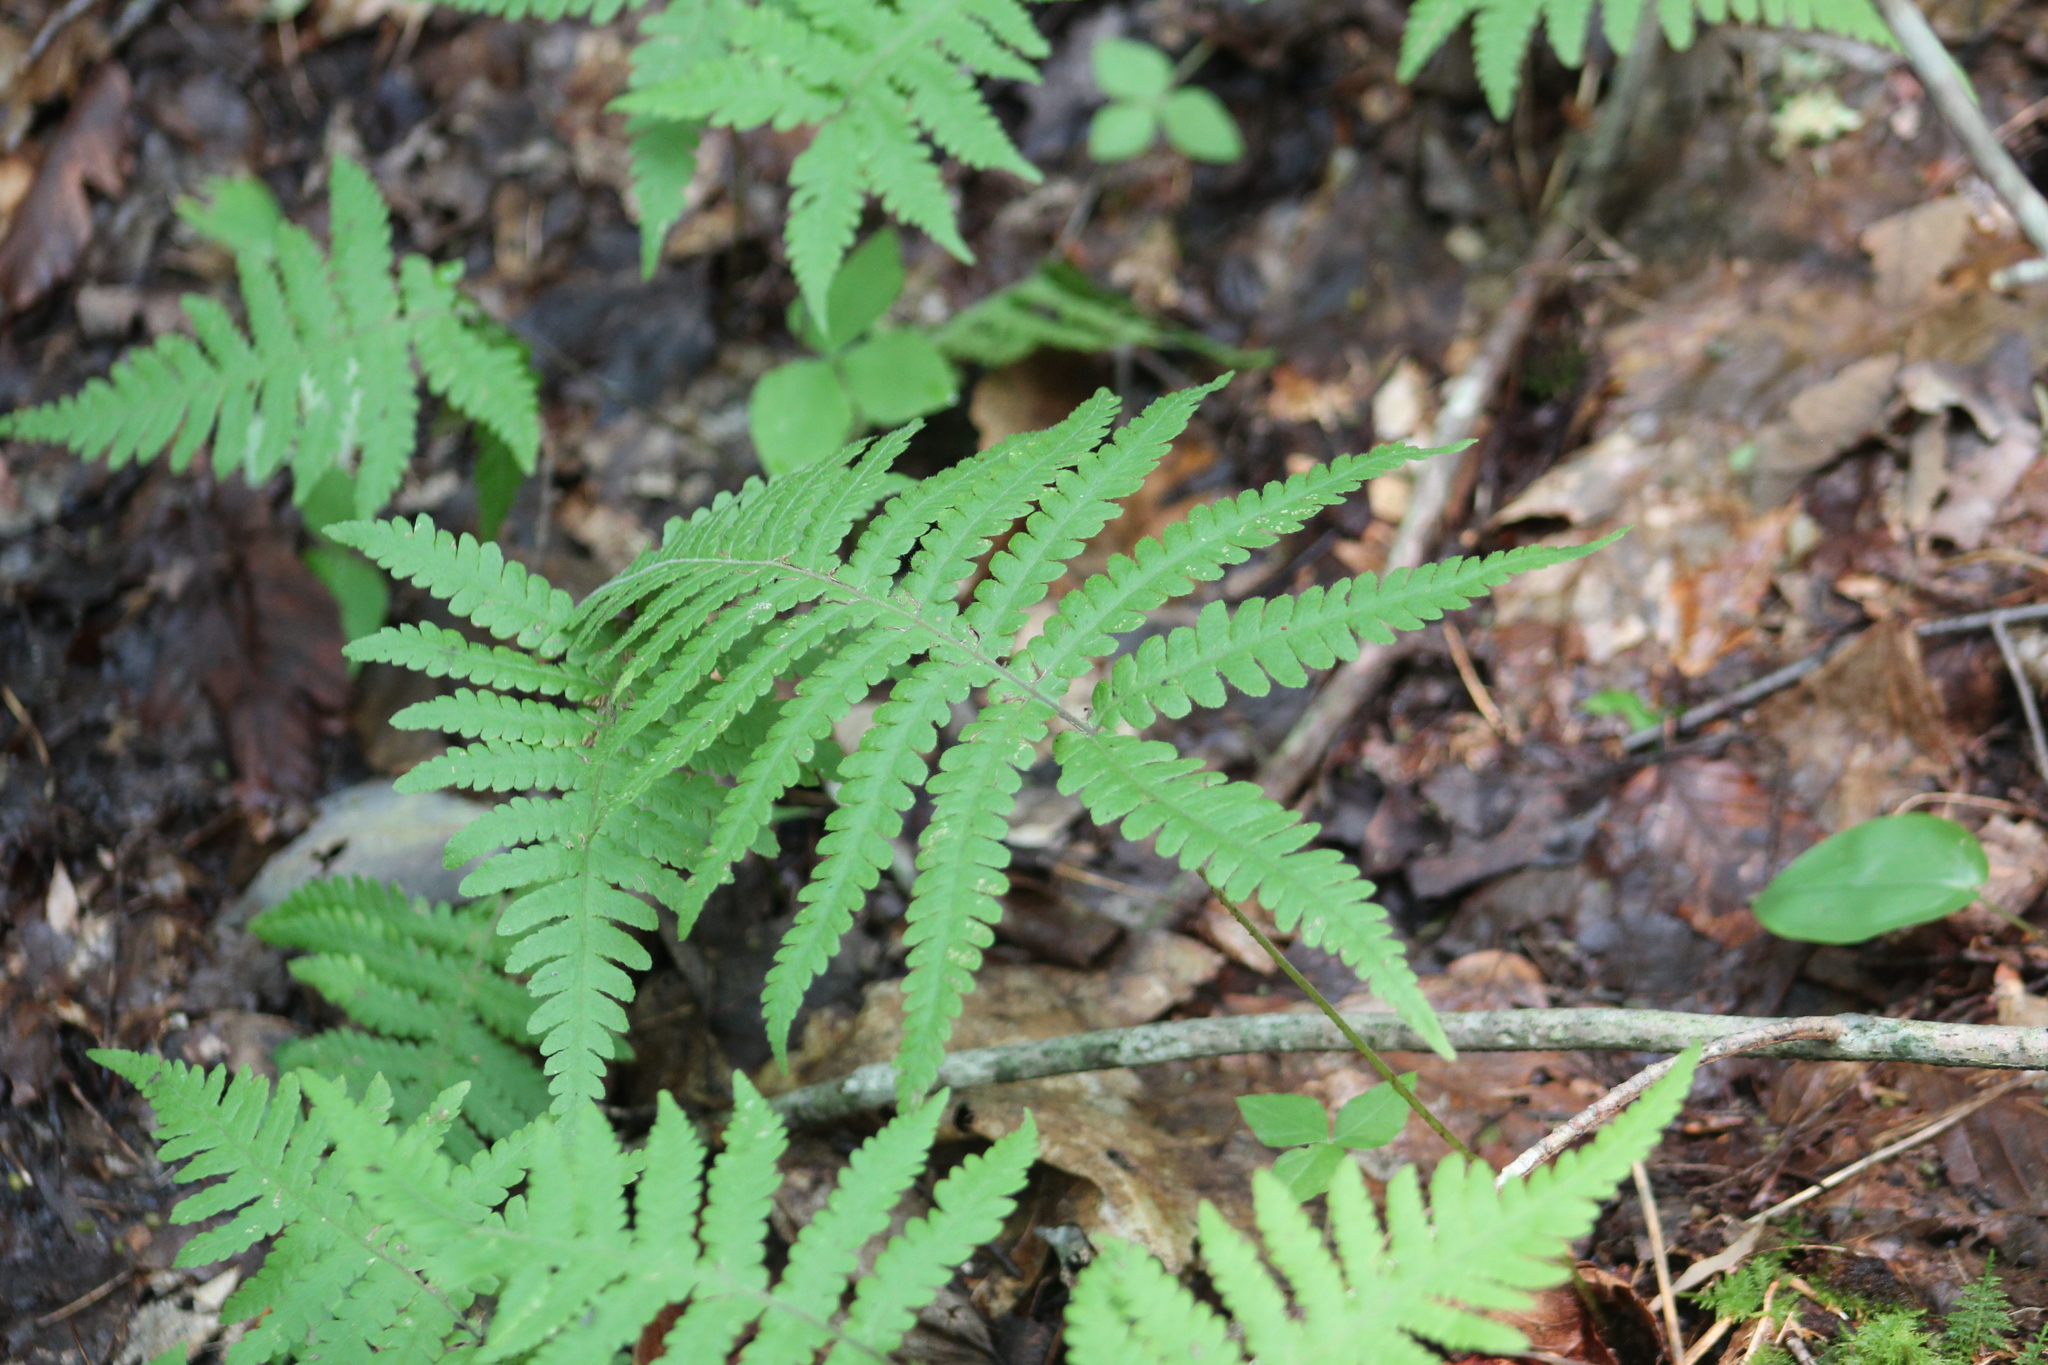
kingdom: Plantae
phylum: Tracheophyta
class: Polypodiopsida
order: Polypodiales
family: Thelypteridaceae
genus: Phegopteris
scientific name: Phegopteris connectilis
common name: Beech fern
